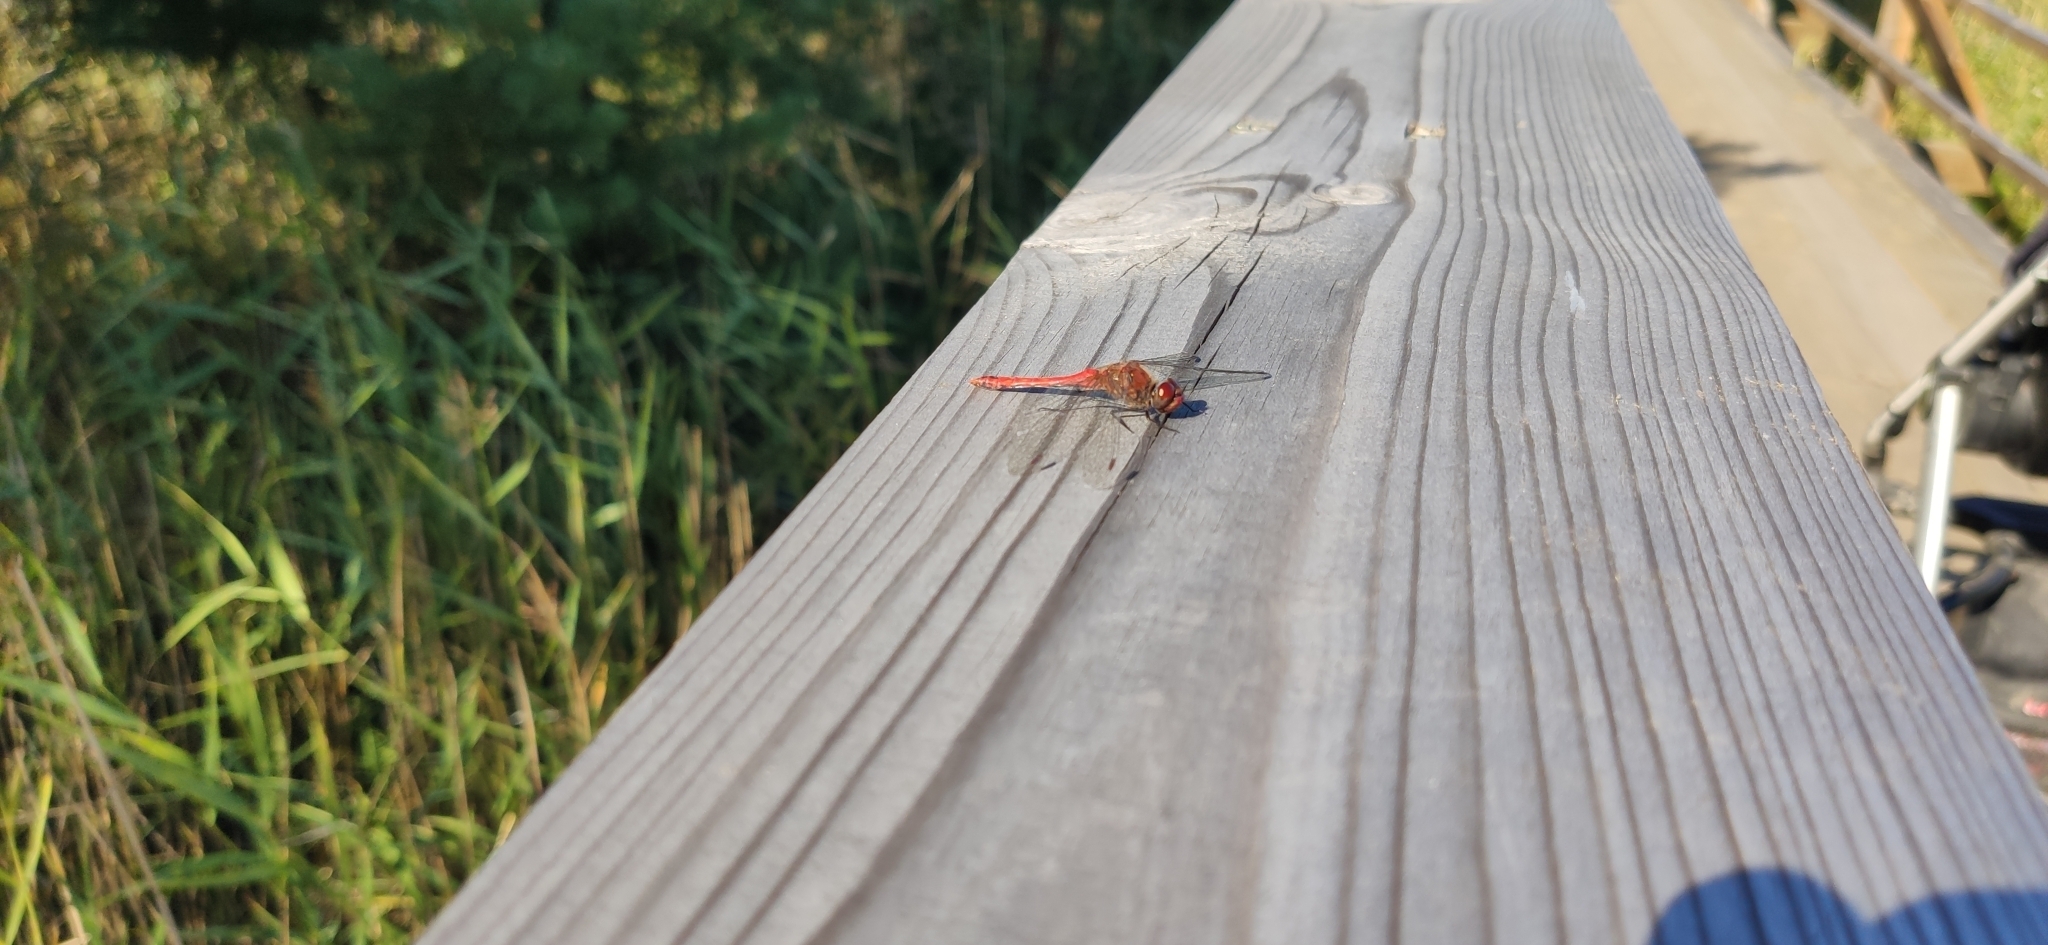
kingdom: Animalia
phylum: Arthropoda
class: Insecta
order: Odonata
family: Libellulidae
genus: Sympetrum
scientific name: Sympetrum sanguineum
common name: Ruddy darter
